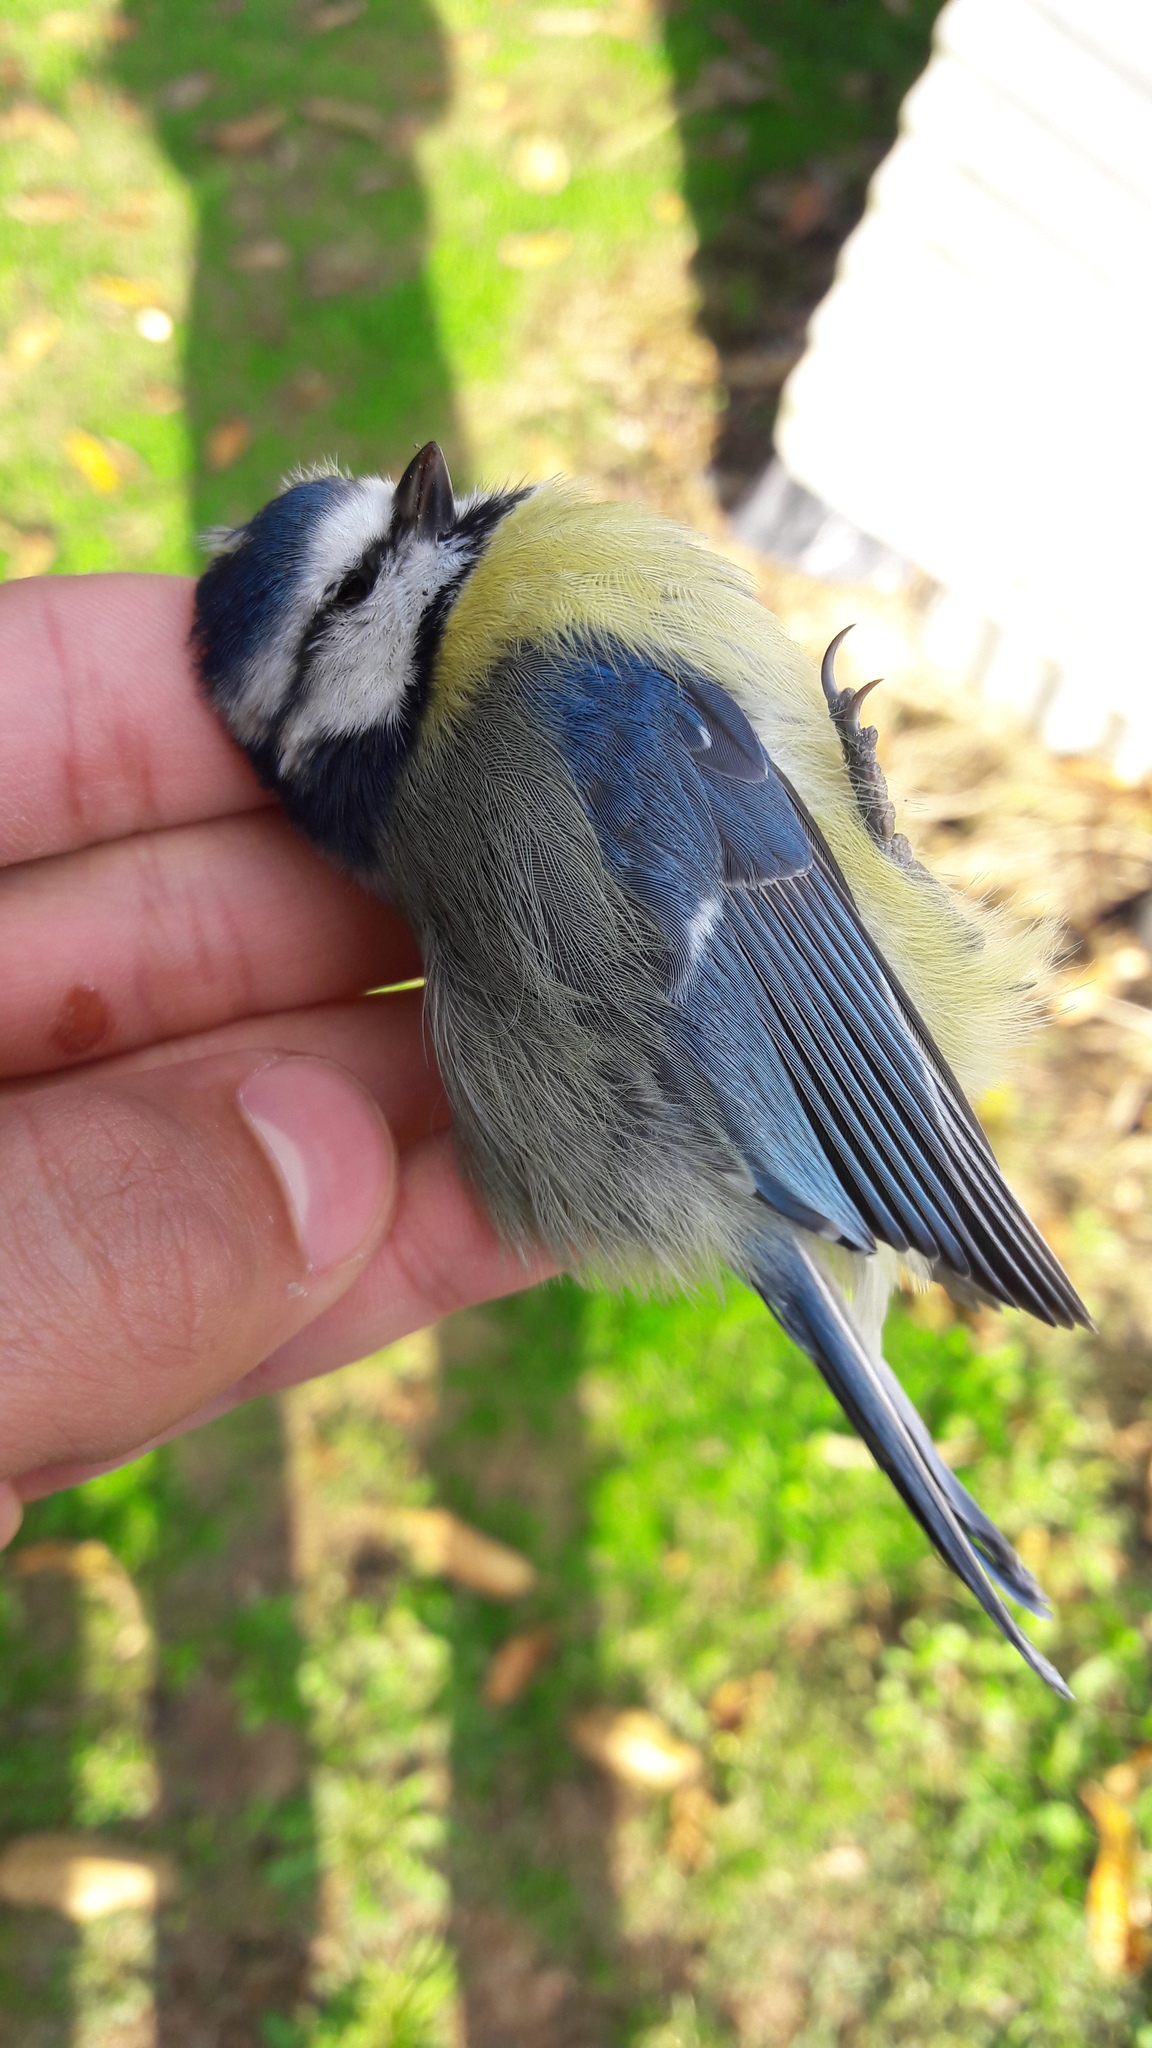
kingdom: Animalia
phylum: Chordata
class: Aves
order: Passeriformes
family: Paridae
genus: Cyanistes
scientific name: Cyanistes caeruleus
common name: Eurasian blue tit
